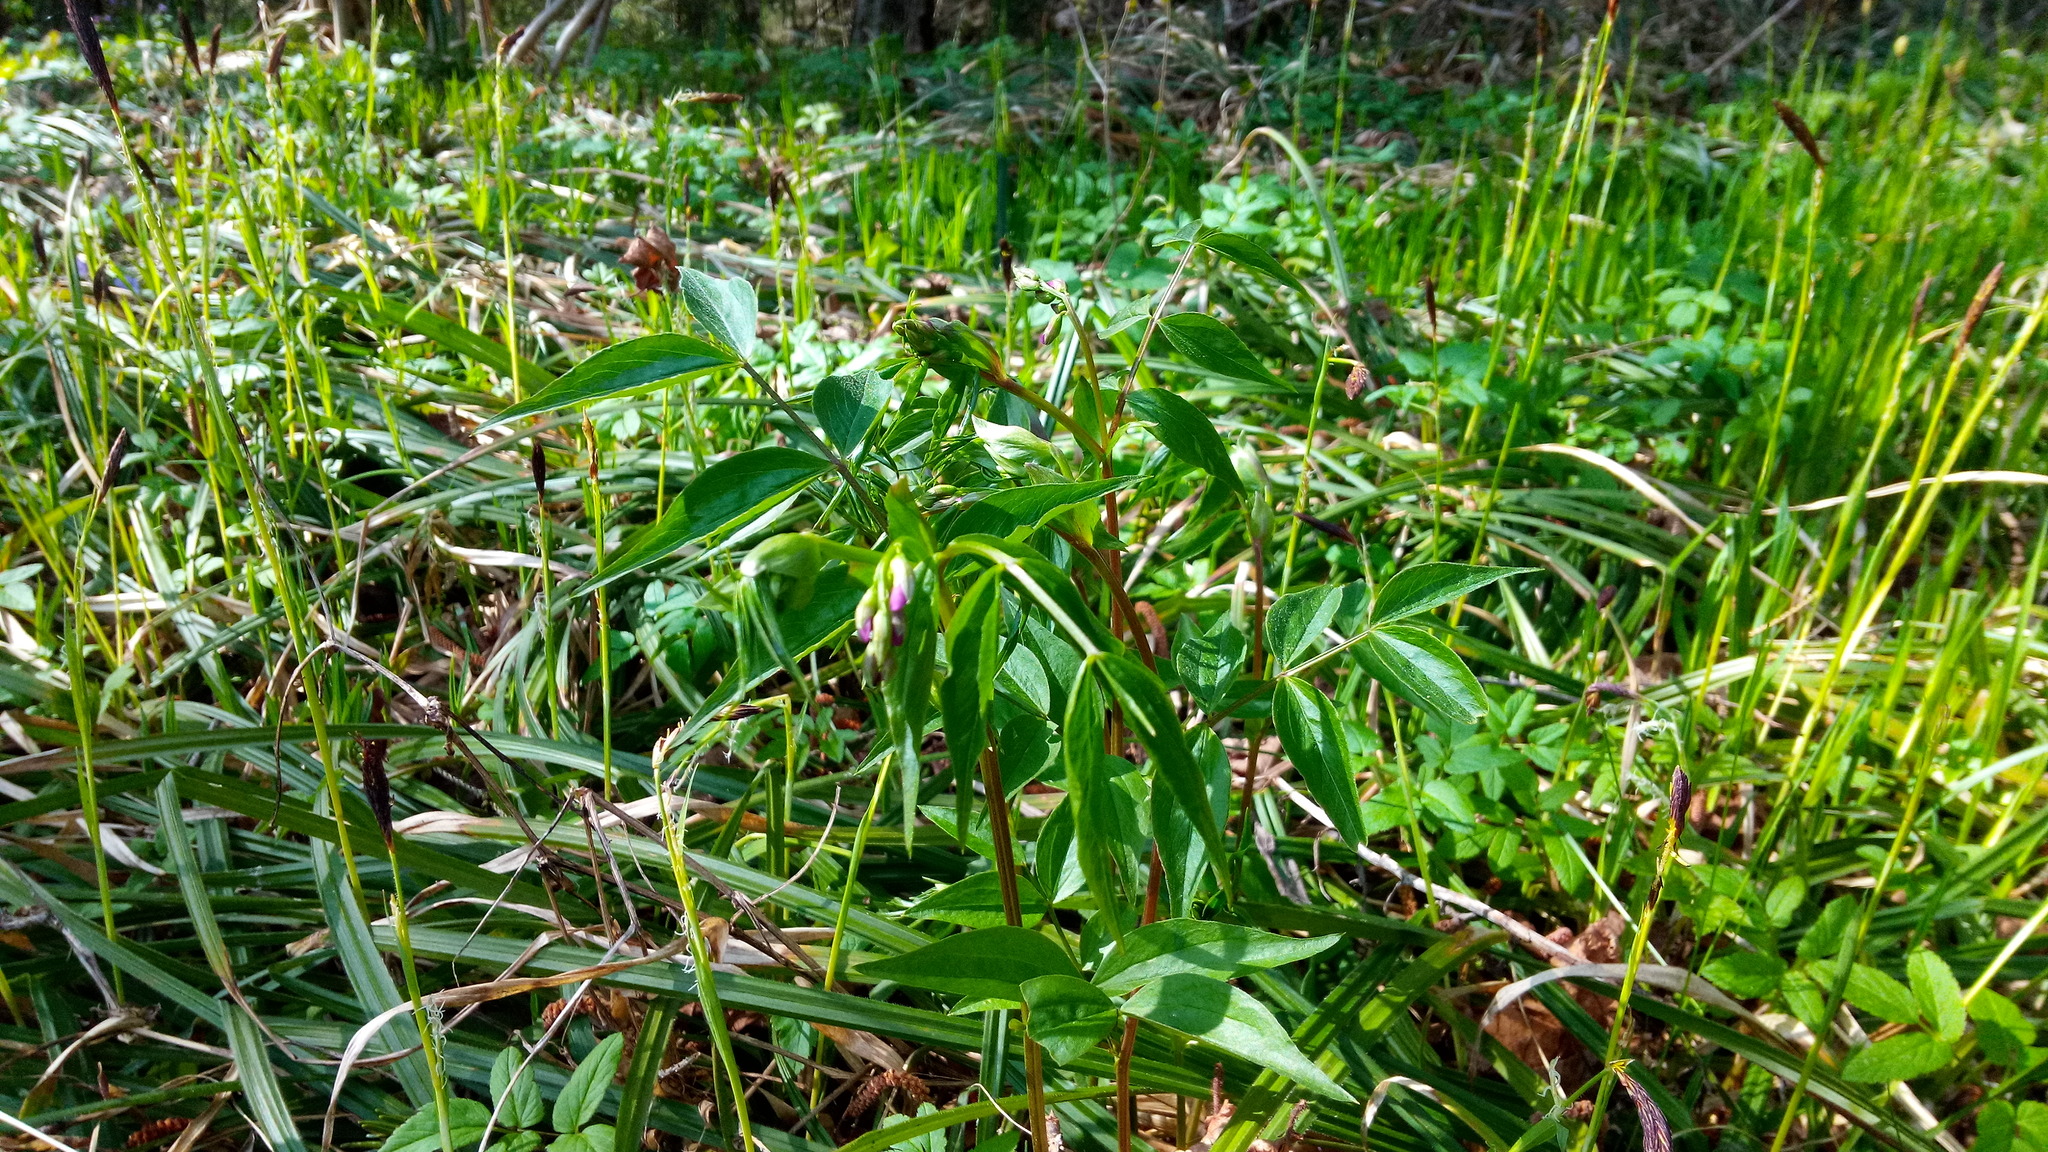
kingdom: Plantae
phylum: Tracheophyta
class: Magnoliopsida
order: Fabales
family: Fabaceae
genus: Lathyrus
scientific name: Lathyrus vernus
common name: Spring pea
